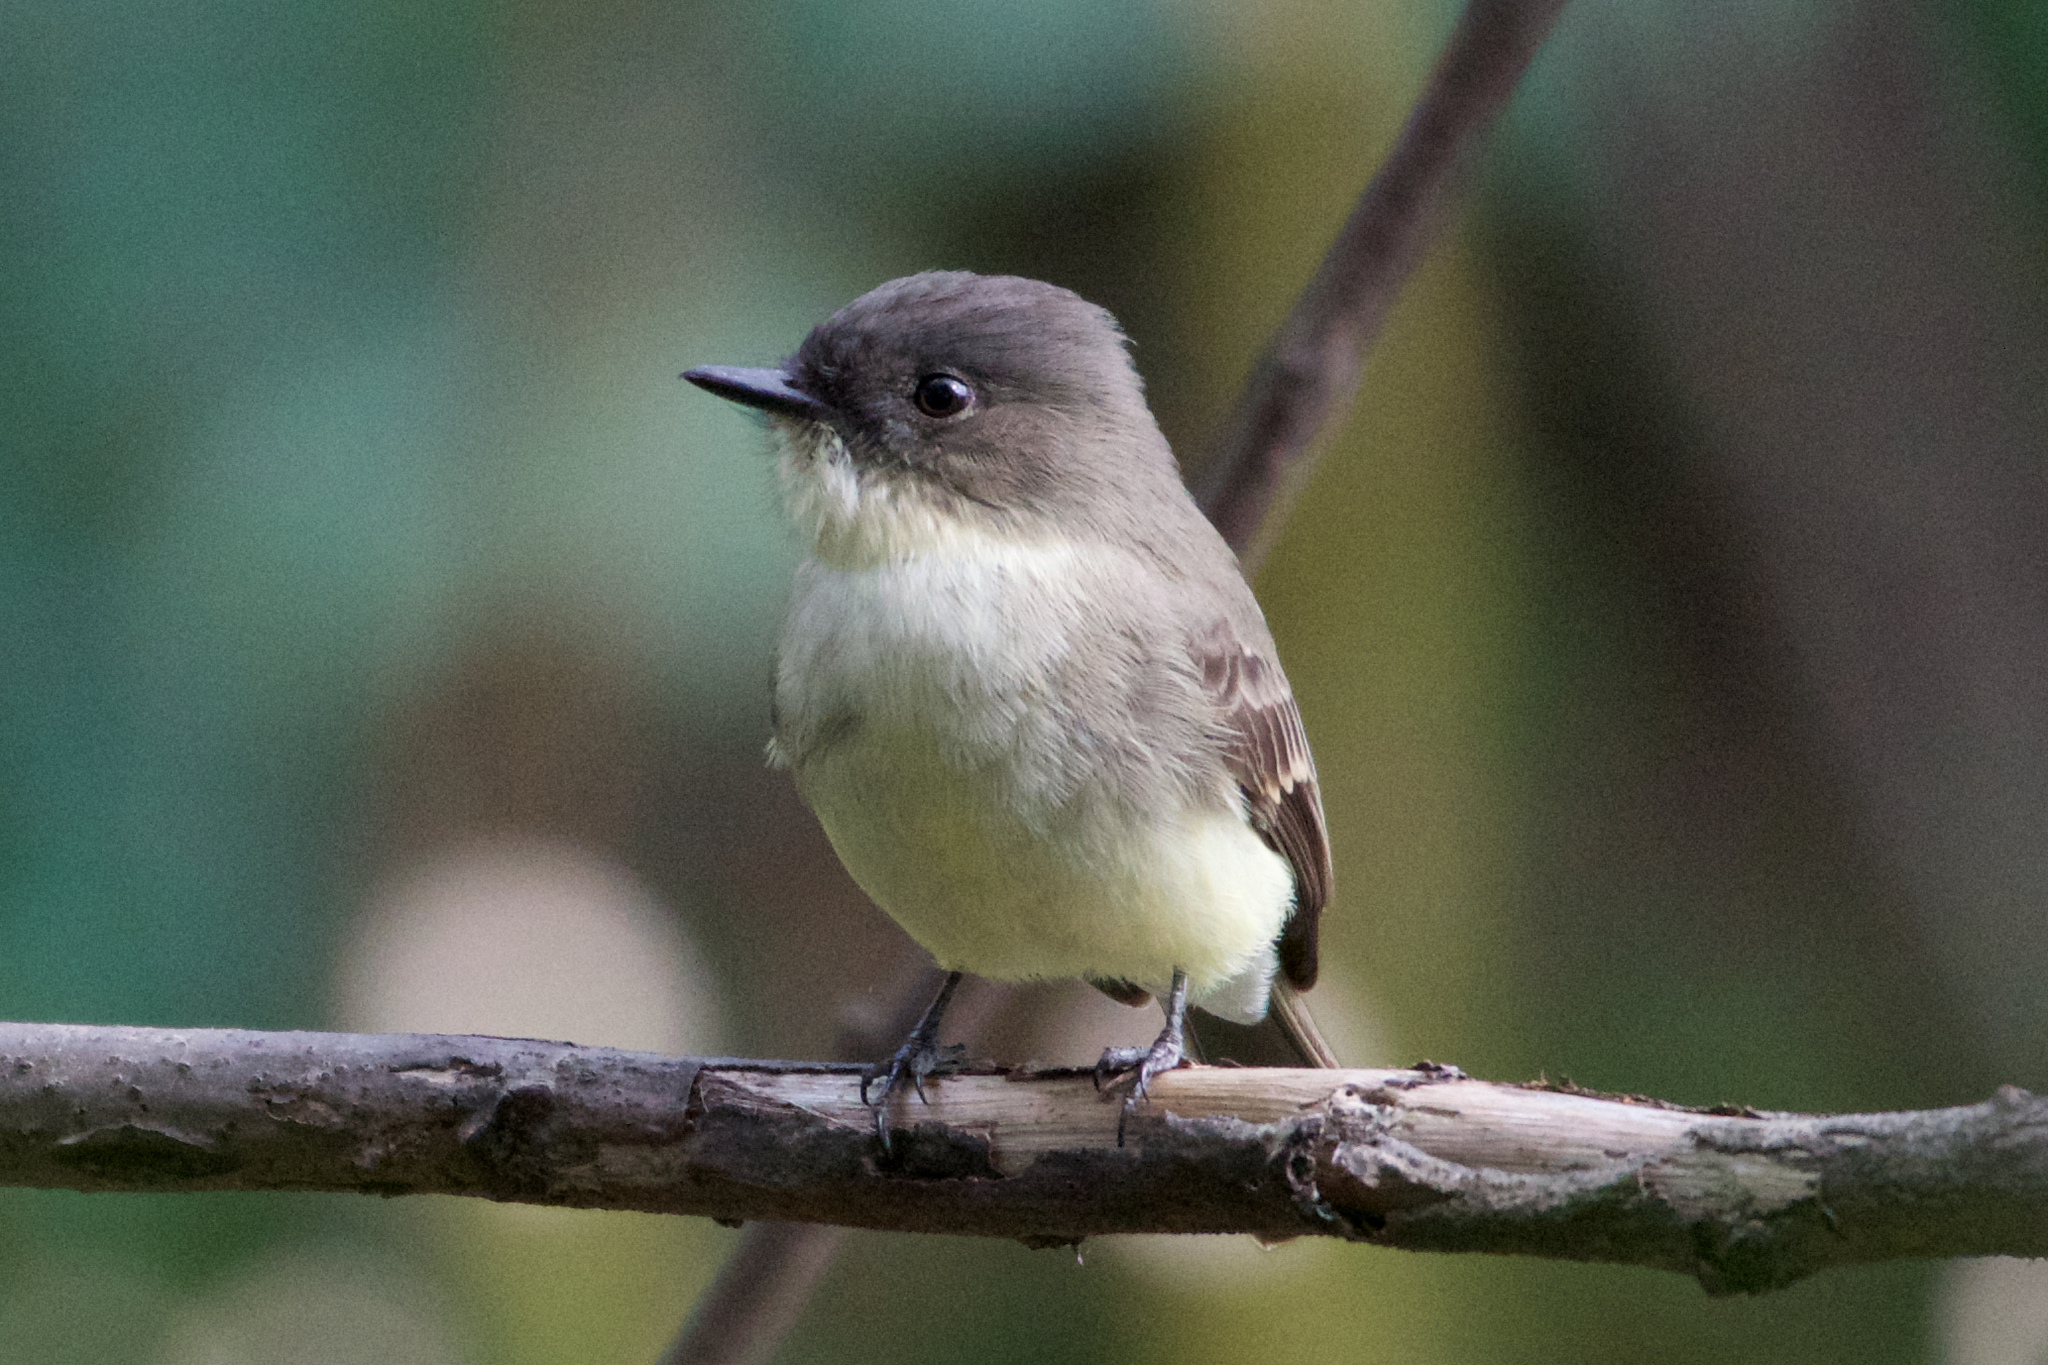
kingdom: Animalia
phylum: Chordata
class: Aves
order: Passeriformes
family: Tyrannidae
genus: Sayornis
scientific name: Sayornis phoebe
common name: Eastern phoebe
